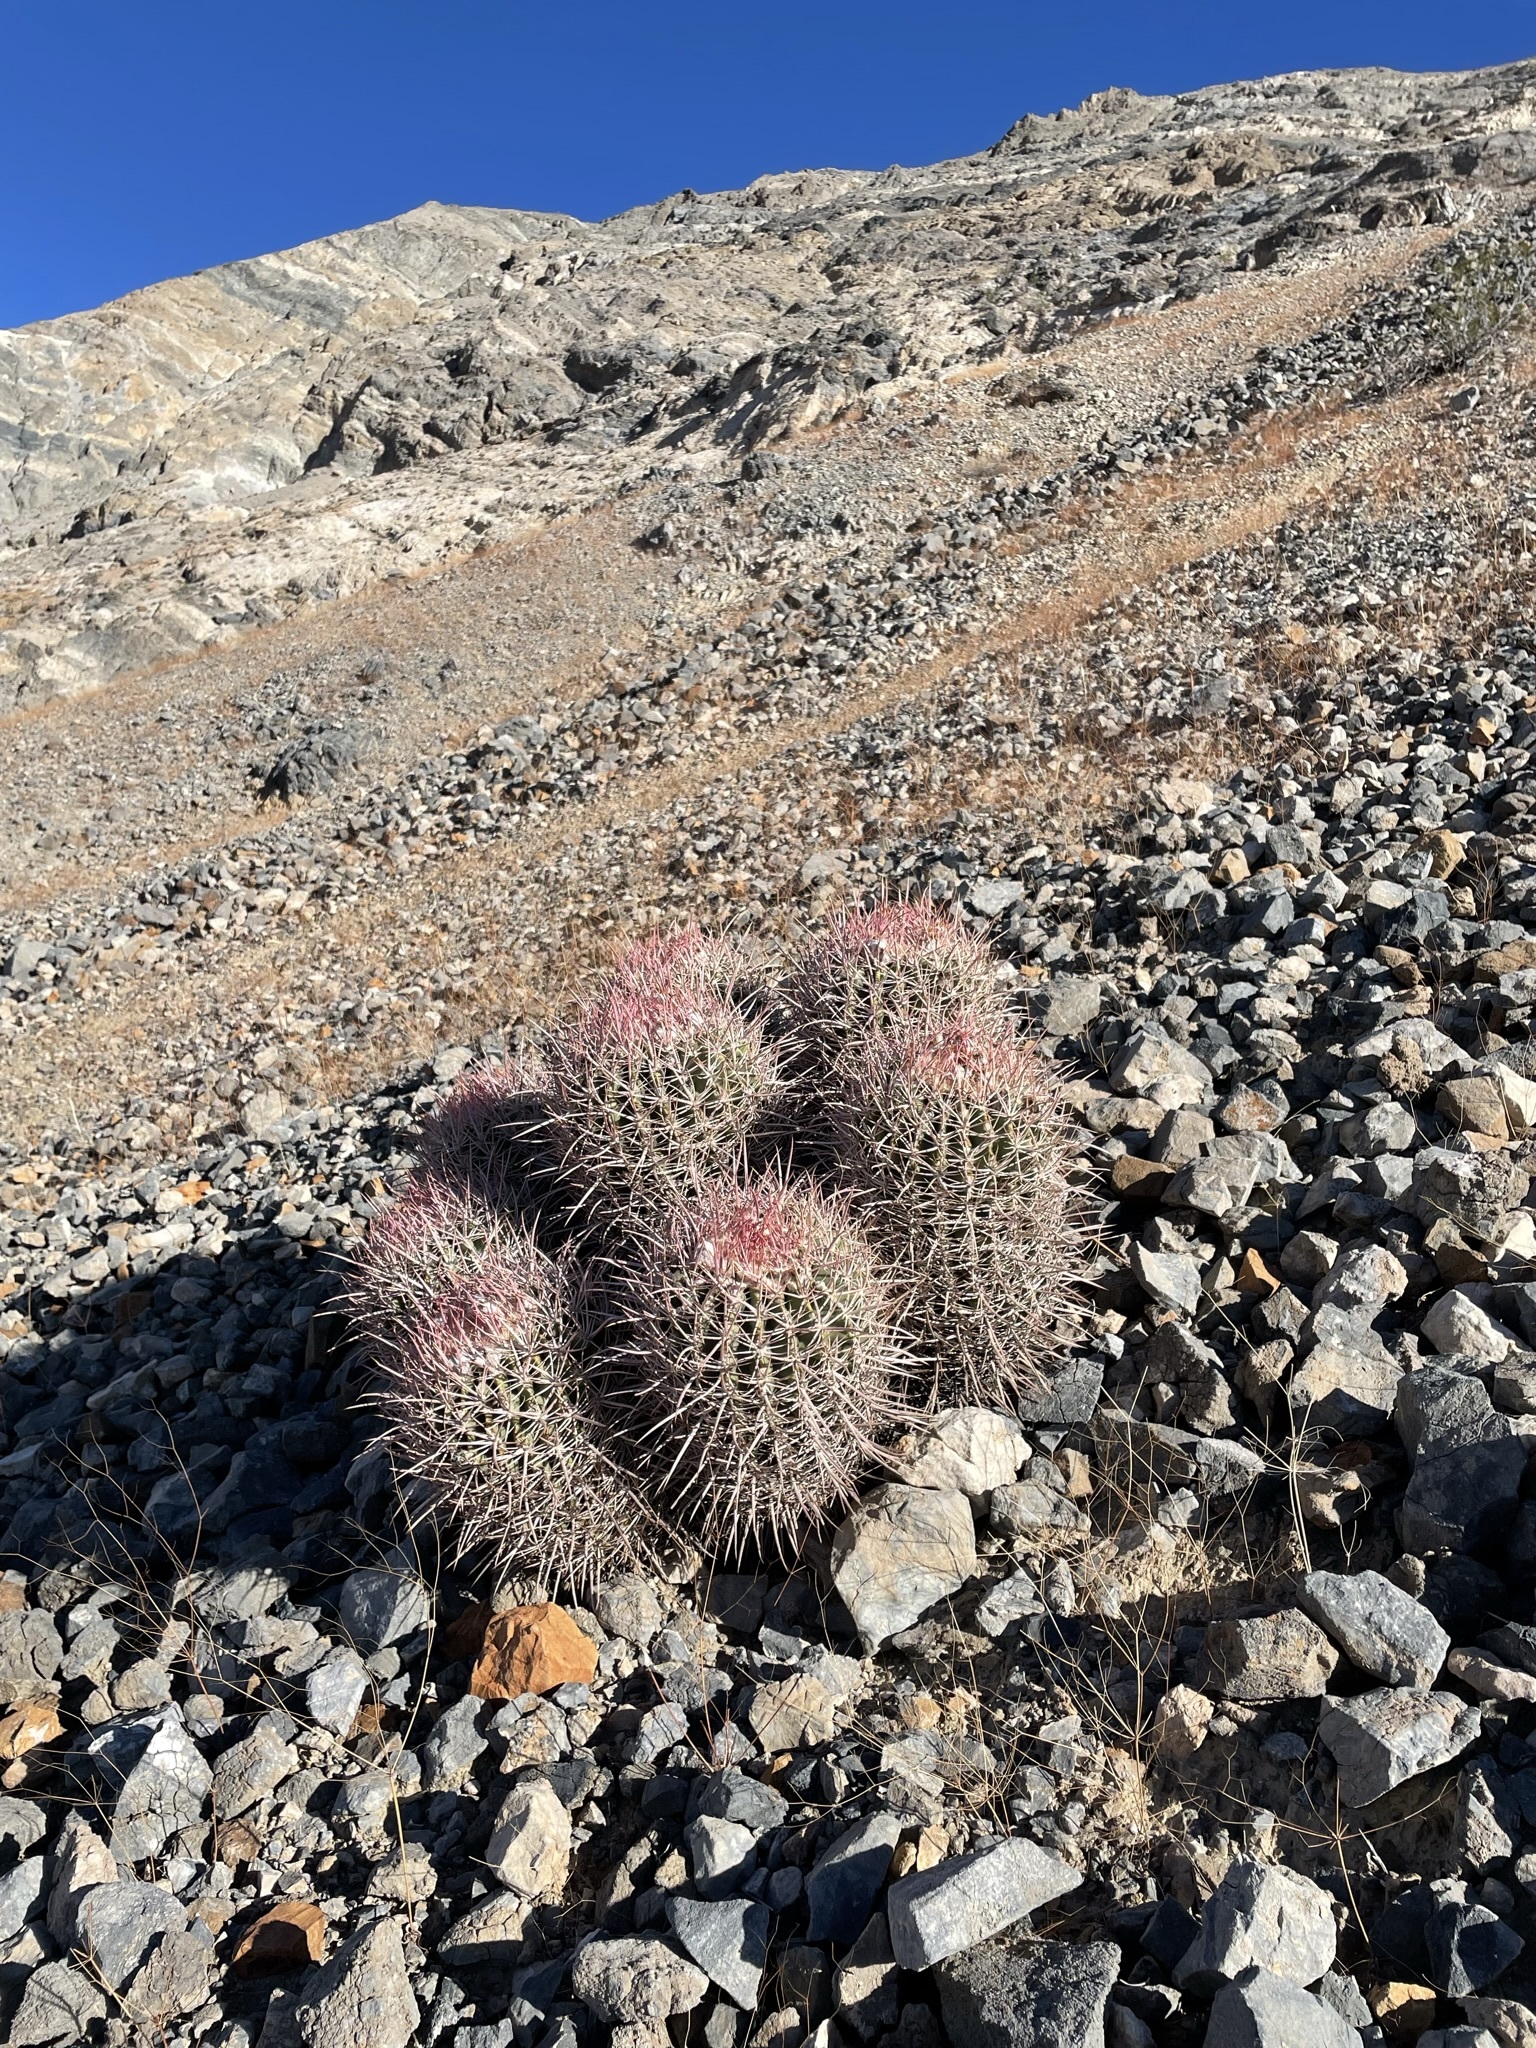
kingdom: Plantae
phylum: Tracheophyta
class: Magnoliopsida
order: Caryophyllales
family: Cactaceae
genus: Echinocactus
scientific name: Echinocactus polycephalus
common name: Cottontop cactus
